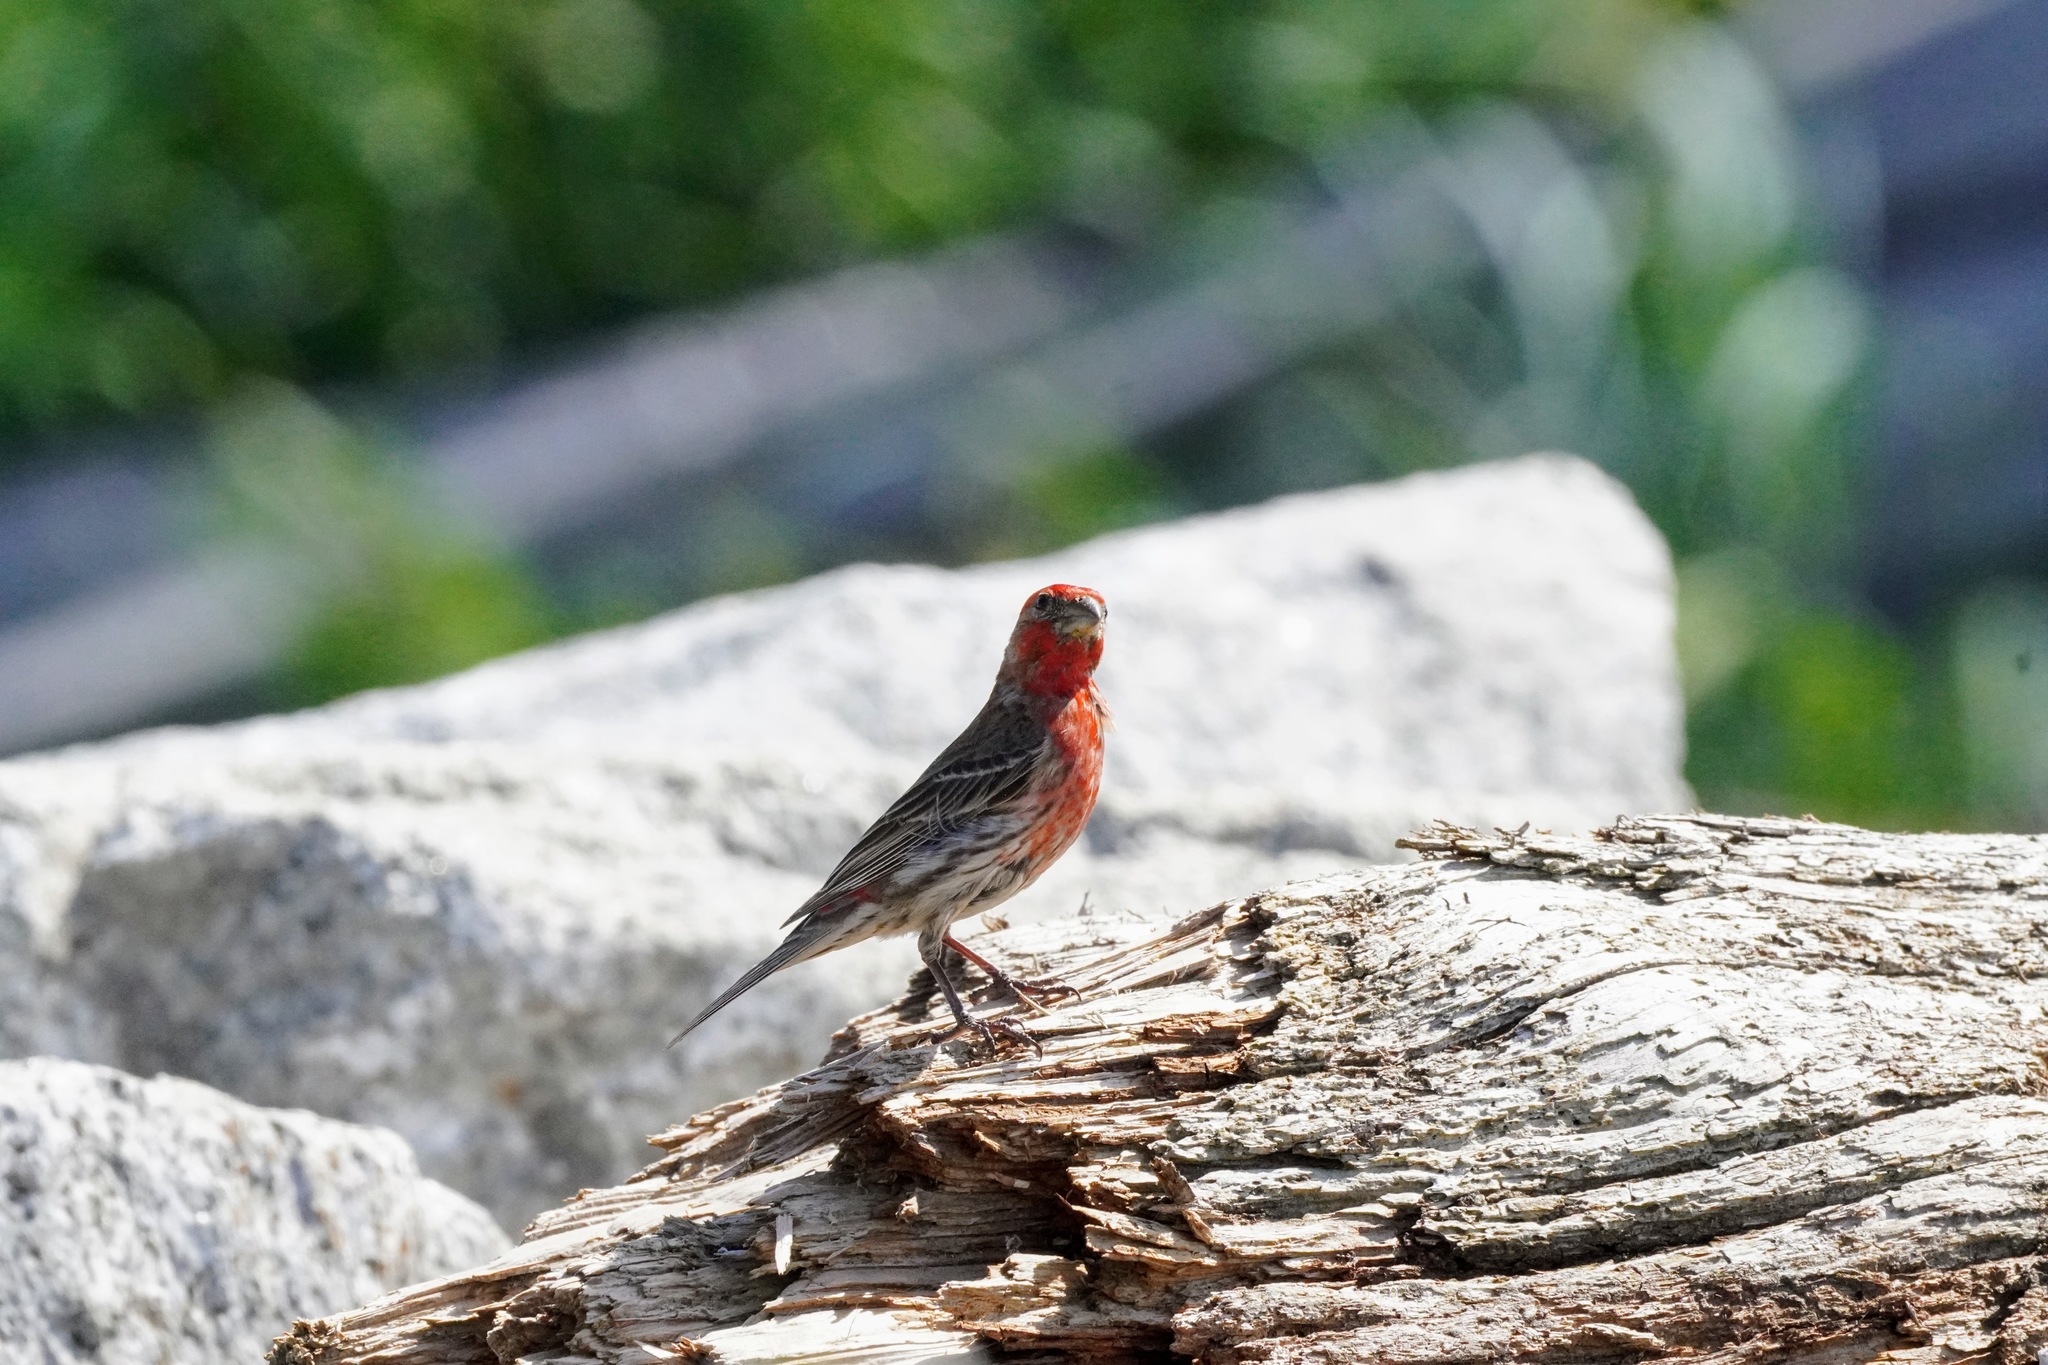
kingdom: Animalia
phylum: Chordata
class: Aves
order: Passeriformes
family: Fringillidae
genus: Haemorhous
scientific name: Haemorhous mexicanus
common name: House finch
